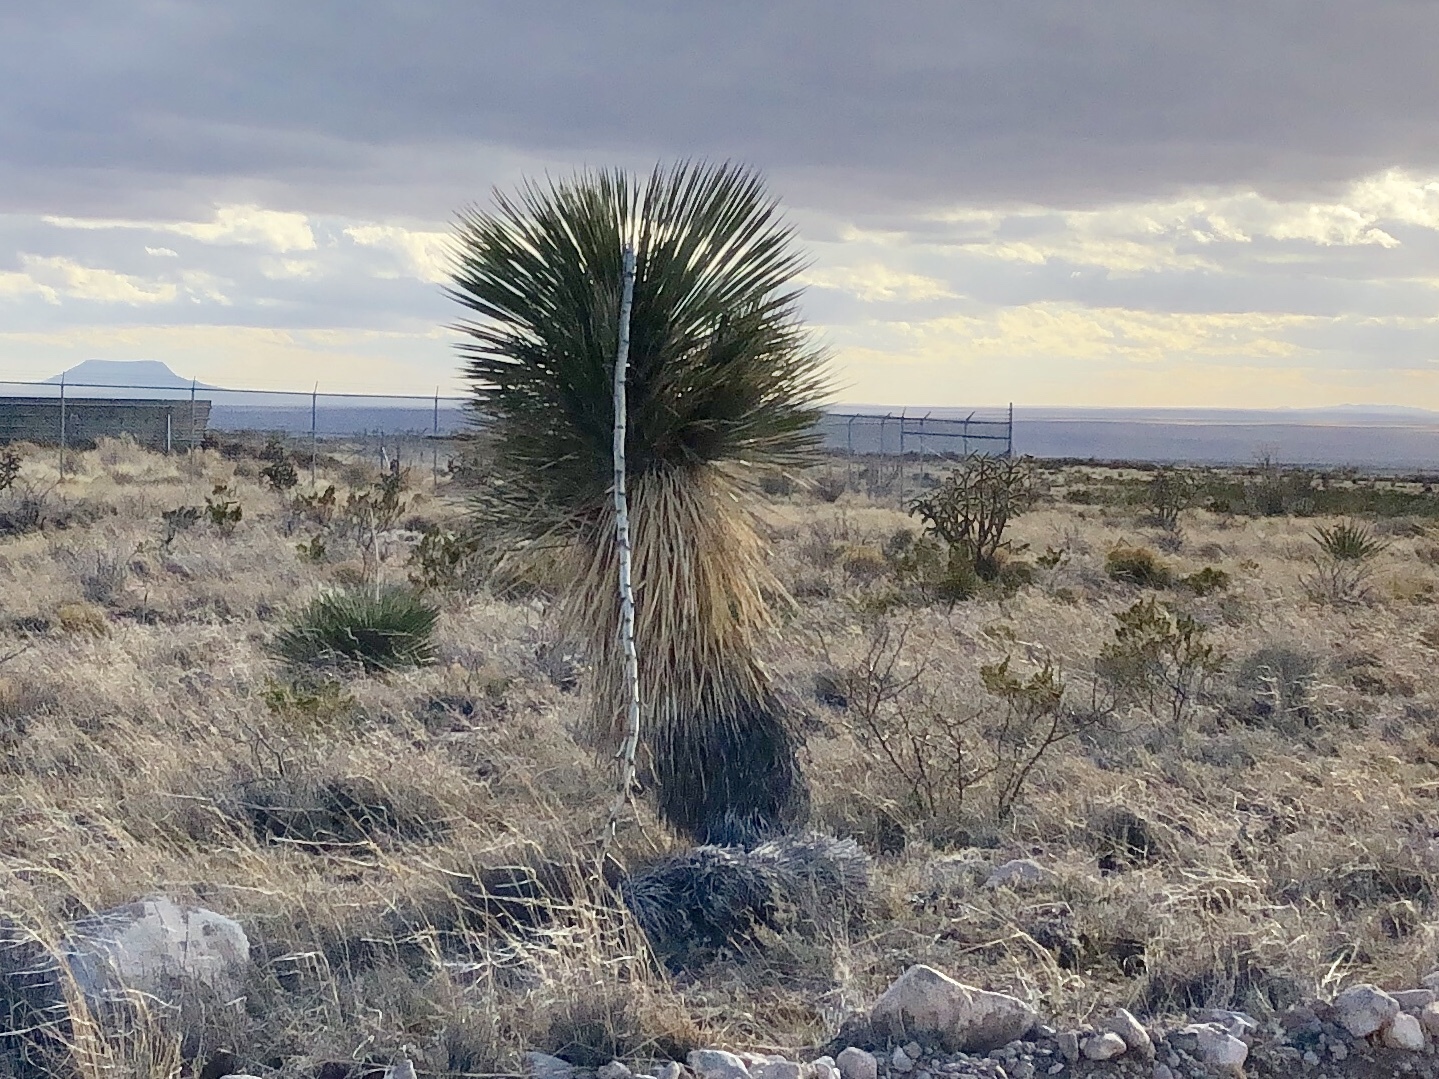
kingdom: Plantae
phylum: Tracheophyta
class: Liliopsida
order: Asparagales
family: Asparagaceae
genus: Yucca
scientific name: Yucca elata
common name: Palmella
